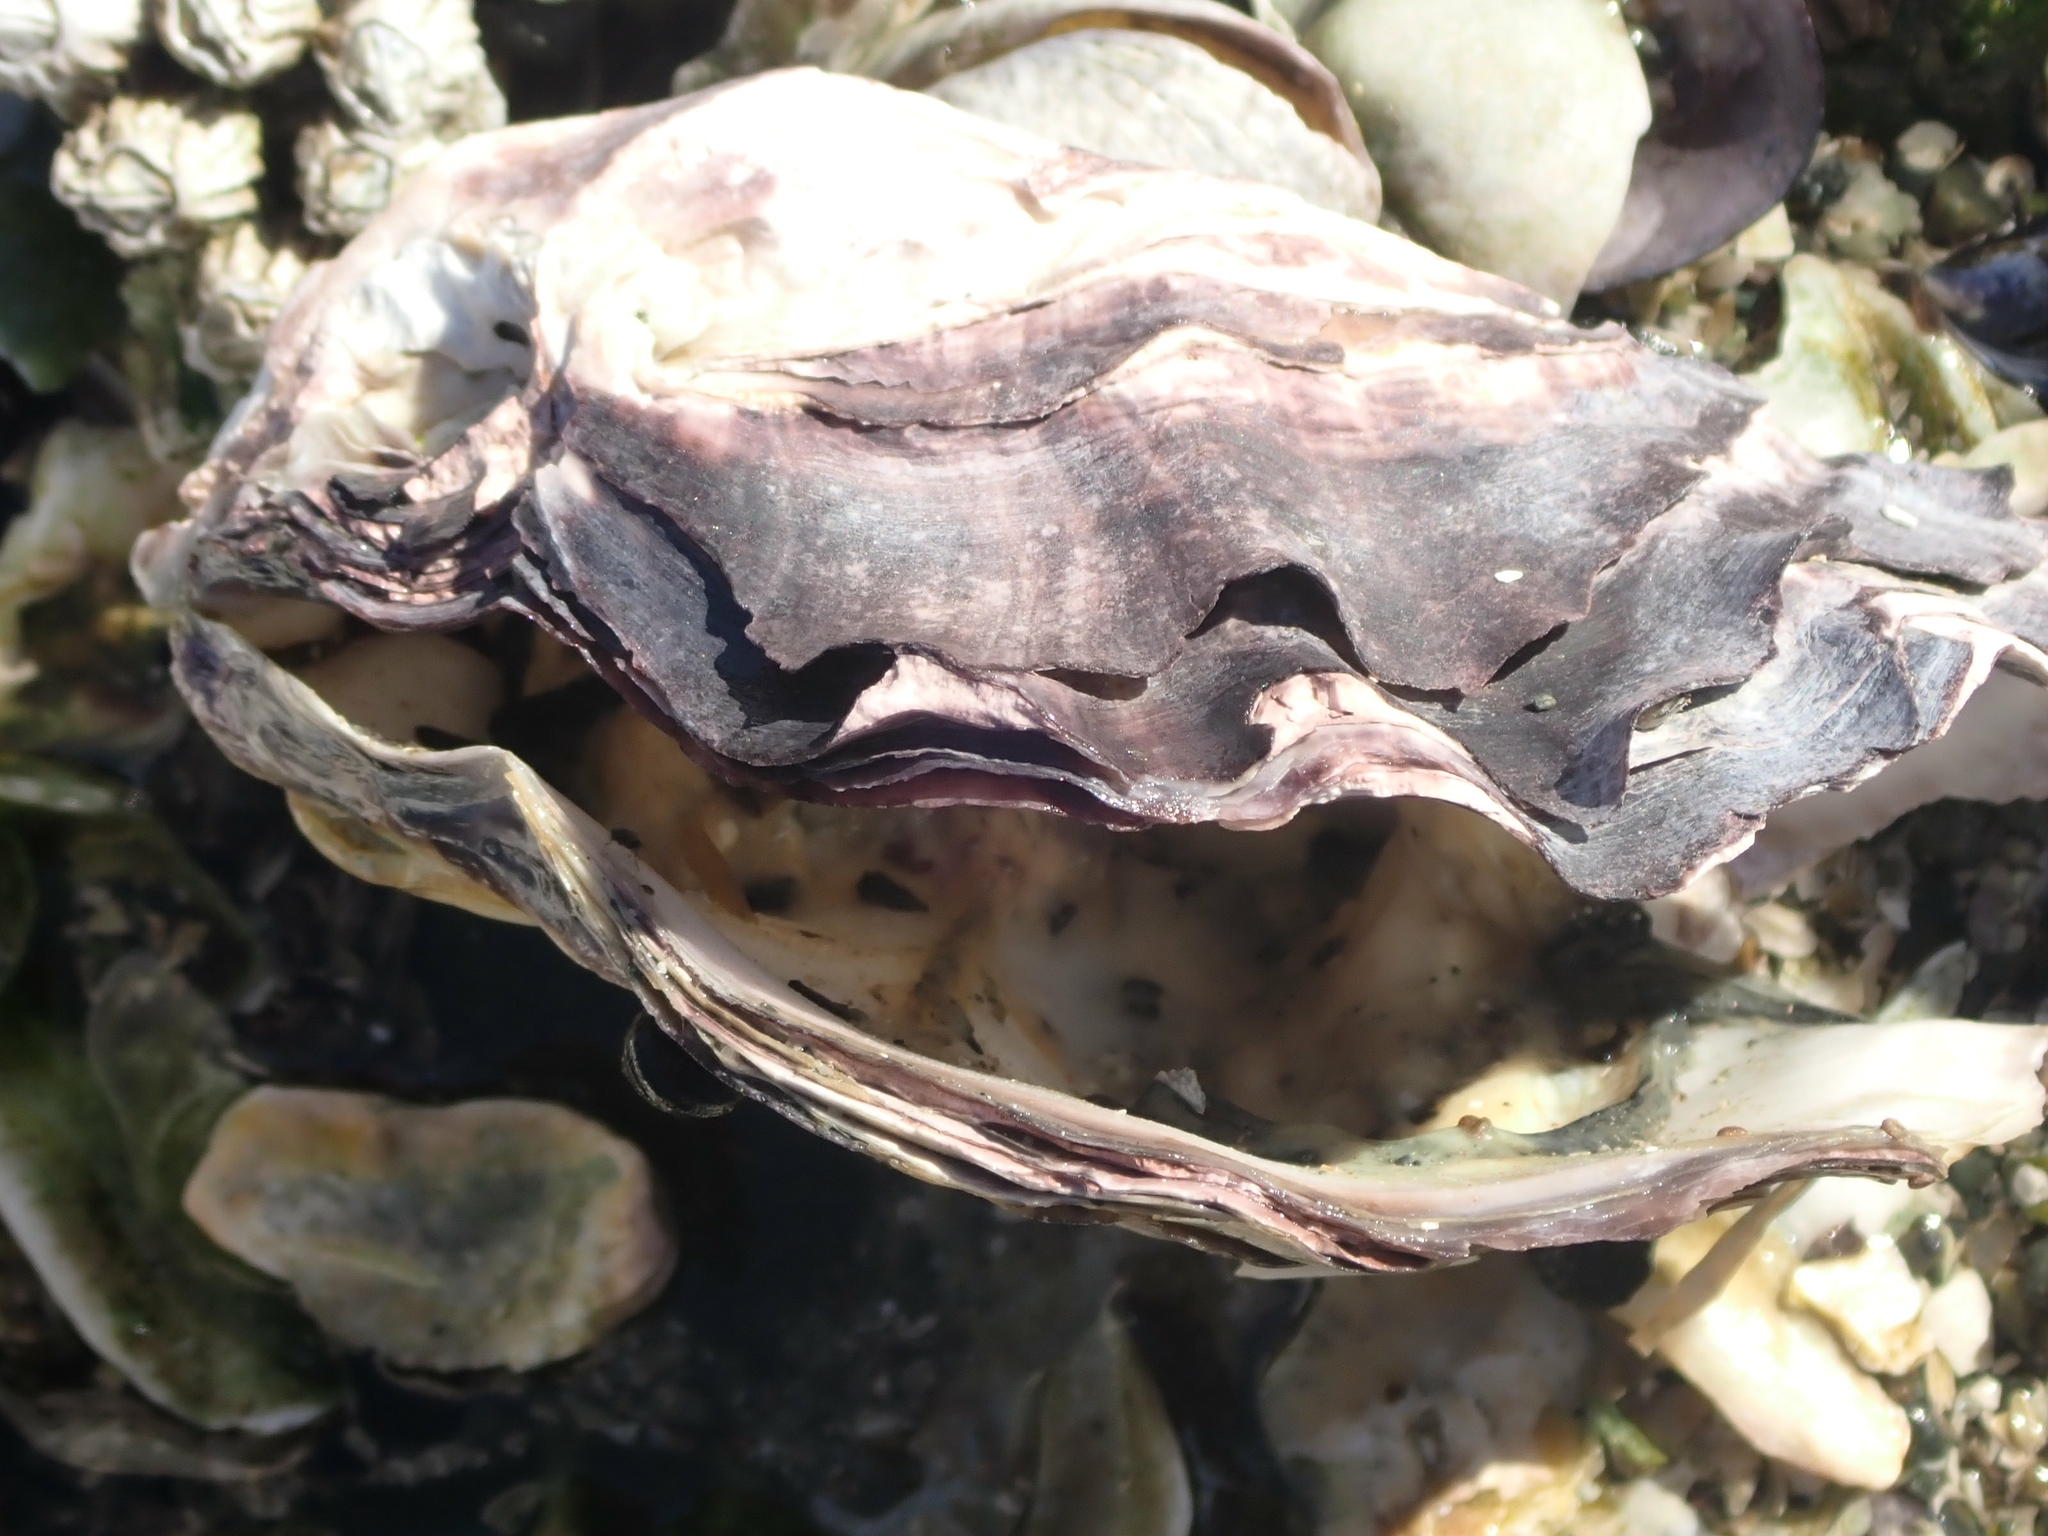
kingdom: Animalia
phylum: Mollusca
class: Bivalvia
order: Ostreida
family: Ostreidae
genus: Magallana
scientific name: Magallana gigas
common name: Pacific oyster
